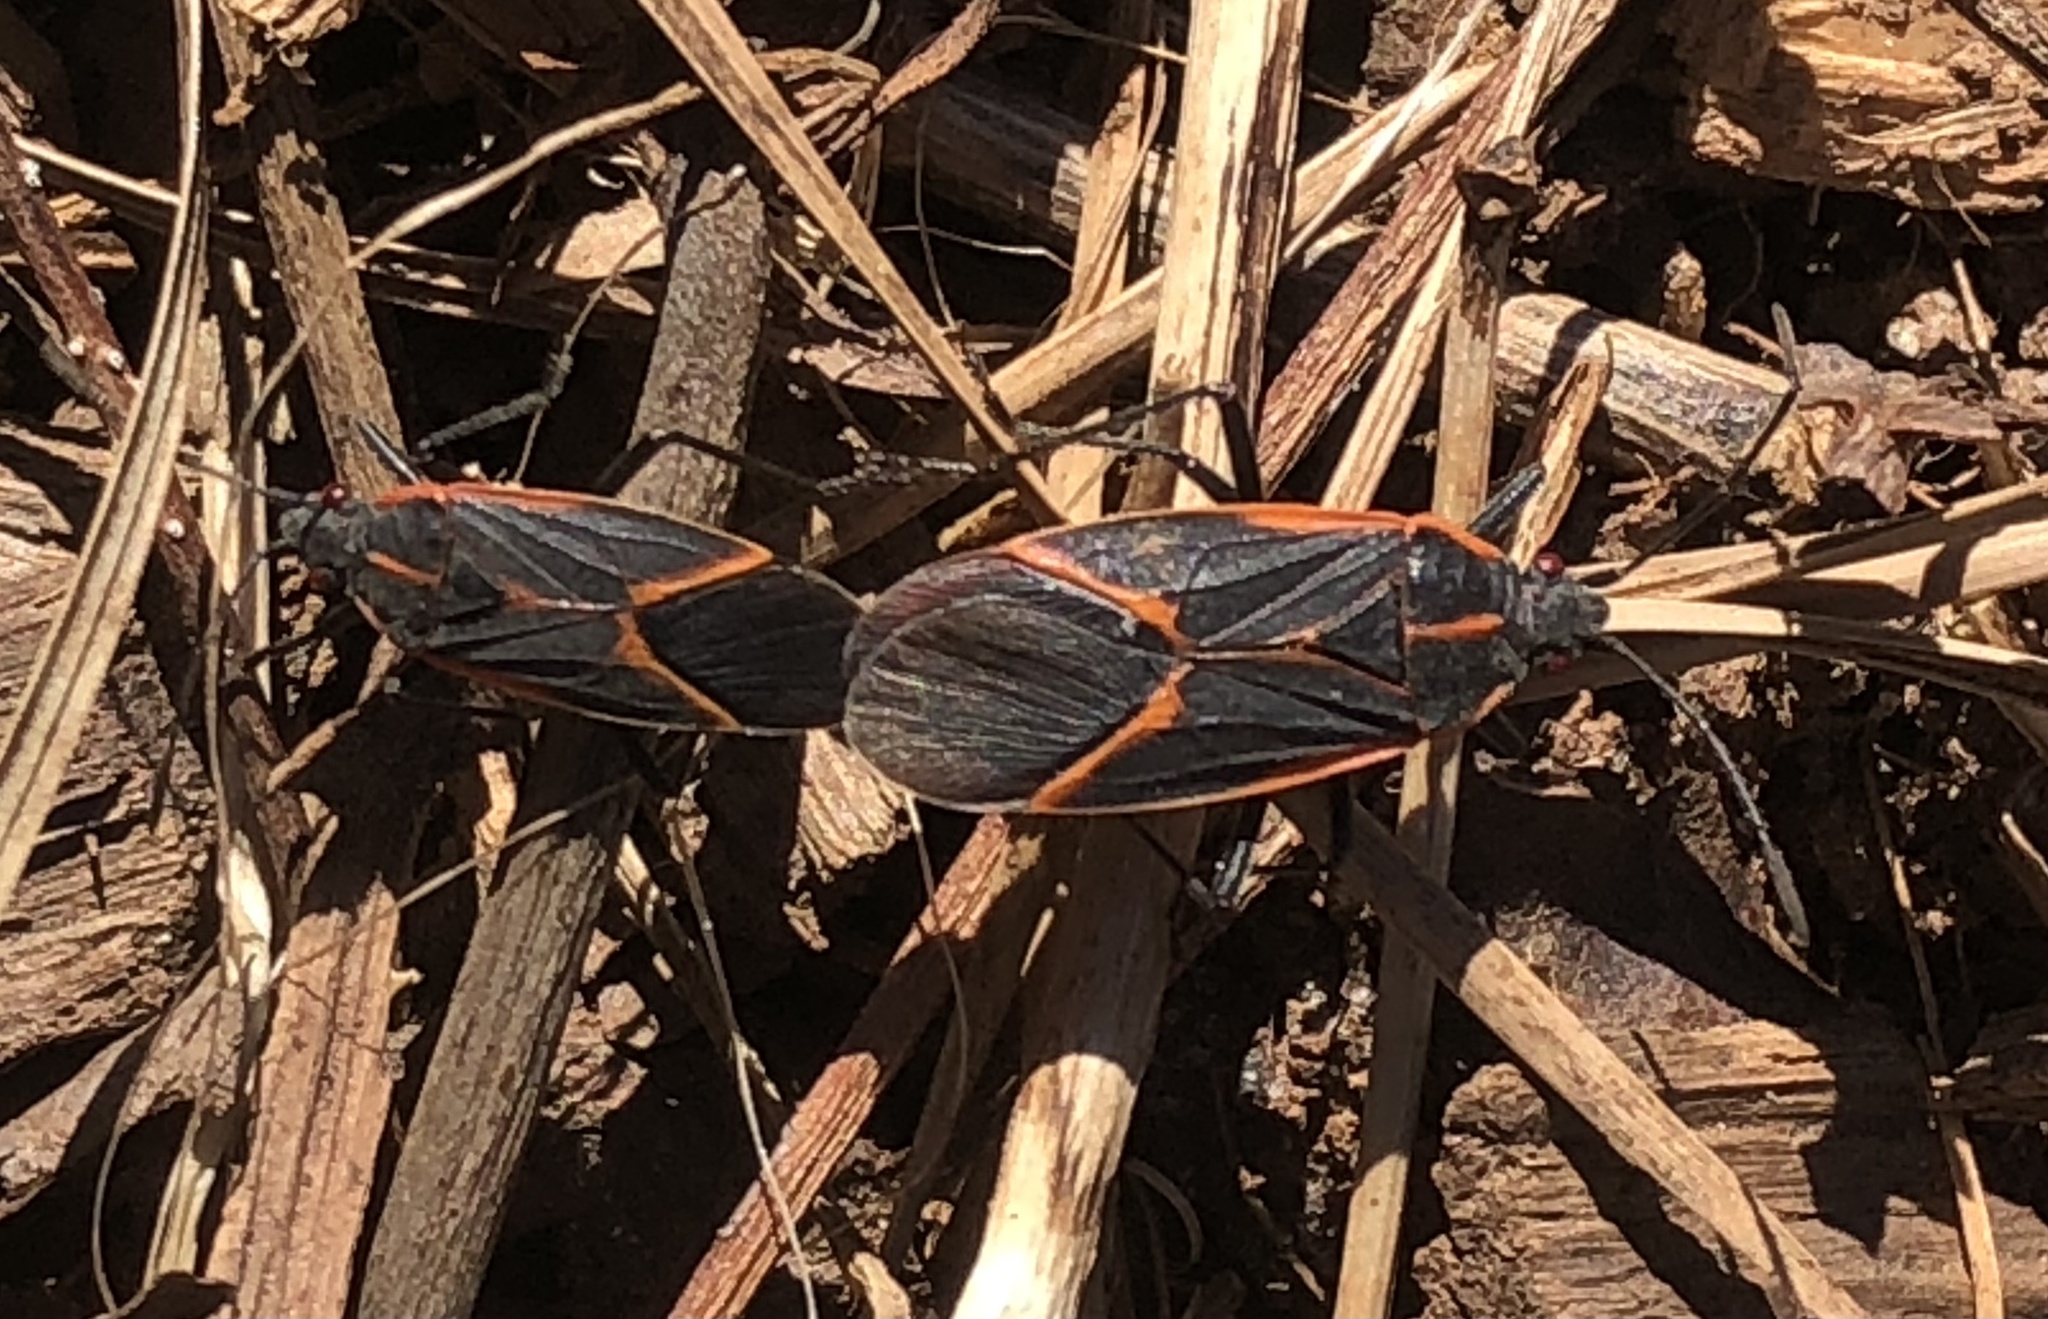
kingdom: Animalia
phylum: Arthropoda
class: Insecta
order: Hemiptera
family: Rhopalidae
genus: Boisea
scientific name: Boisea trivittata
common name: Boxelder bug
